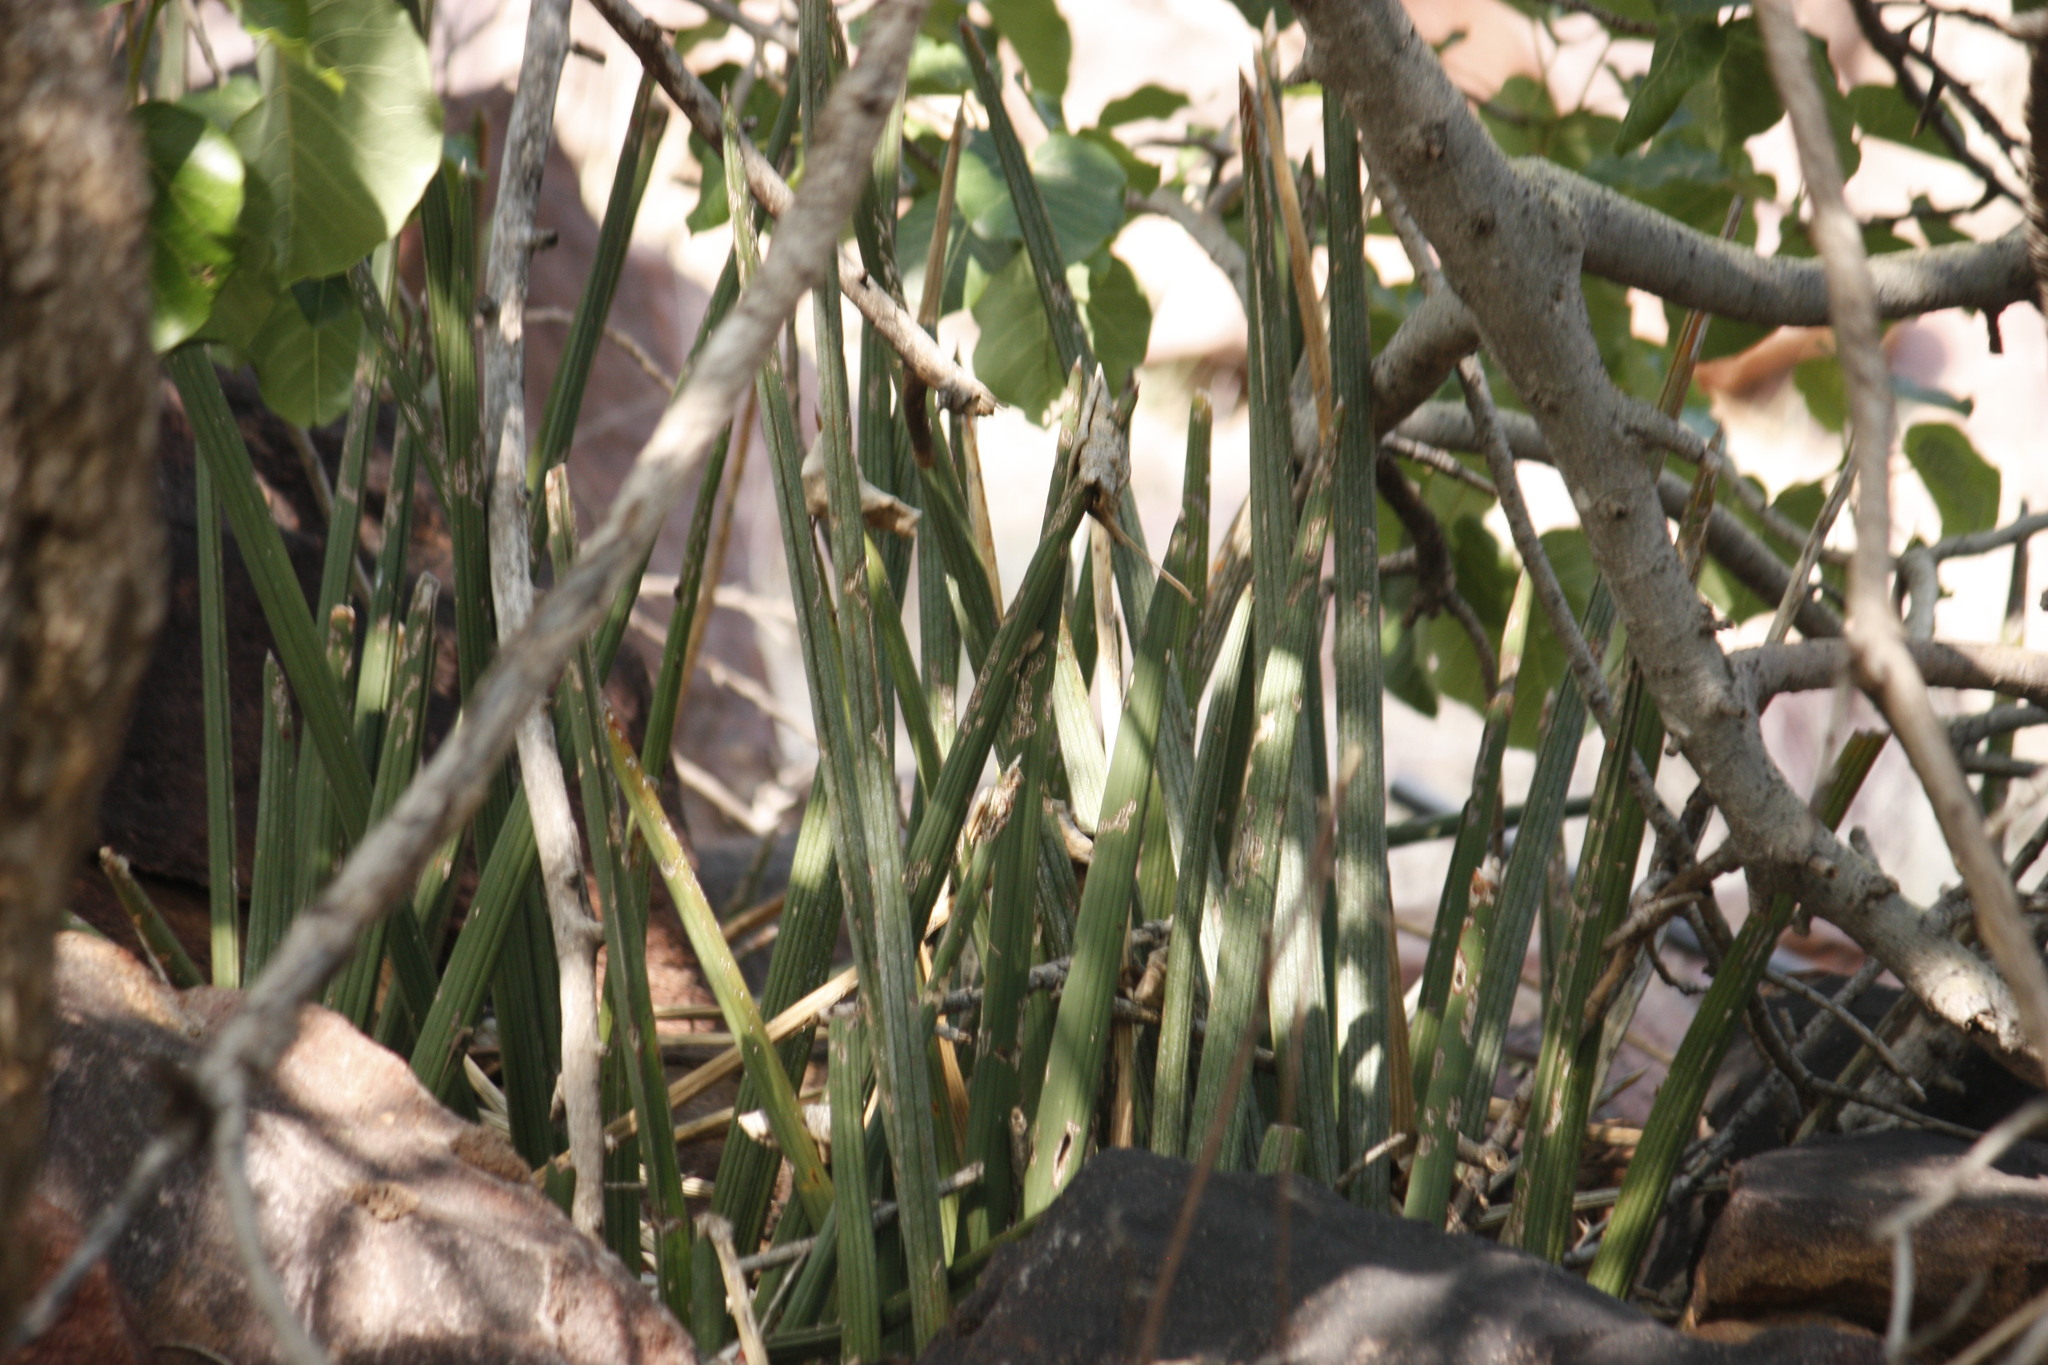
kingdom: Plantae
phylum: Tracheophyta
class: Liliopsida
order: Asparagales
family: Asparagaceae
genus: Dracaena
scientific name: Dracaena pearsonii
